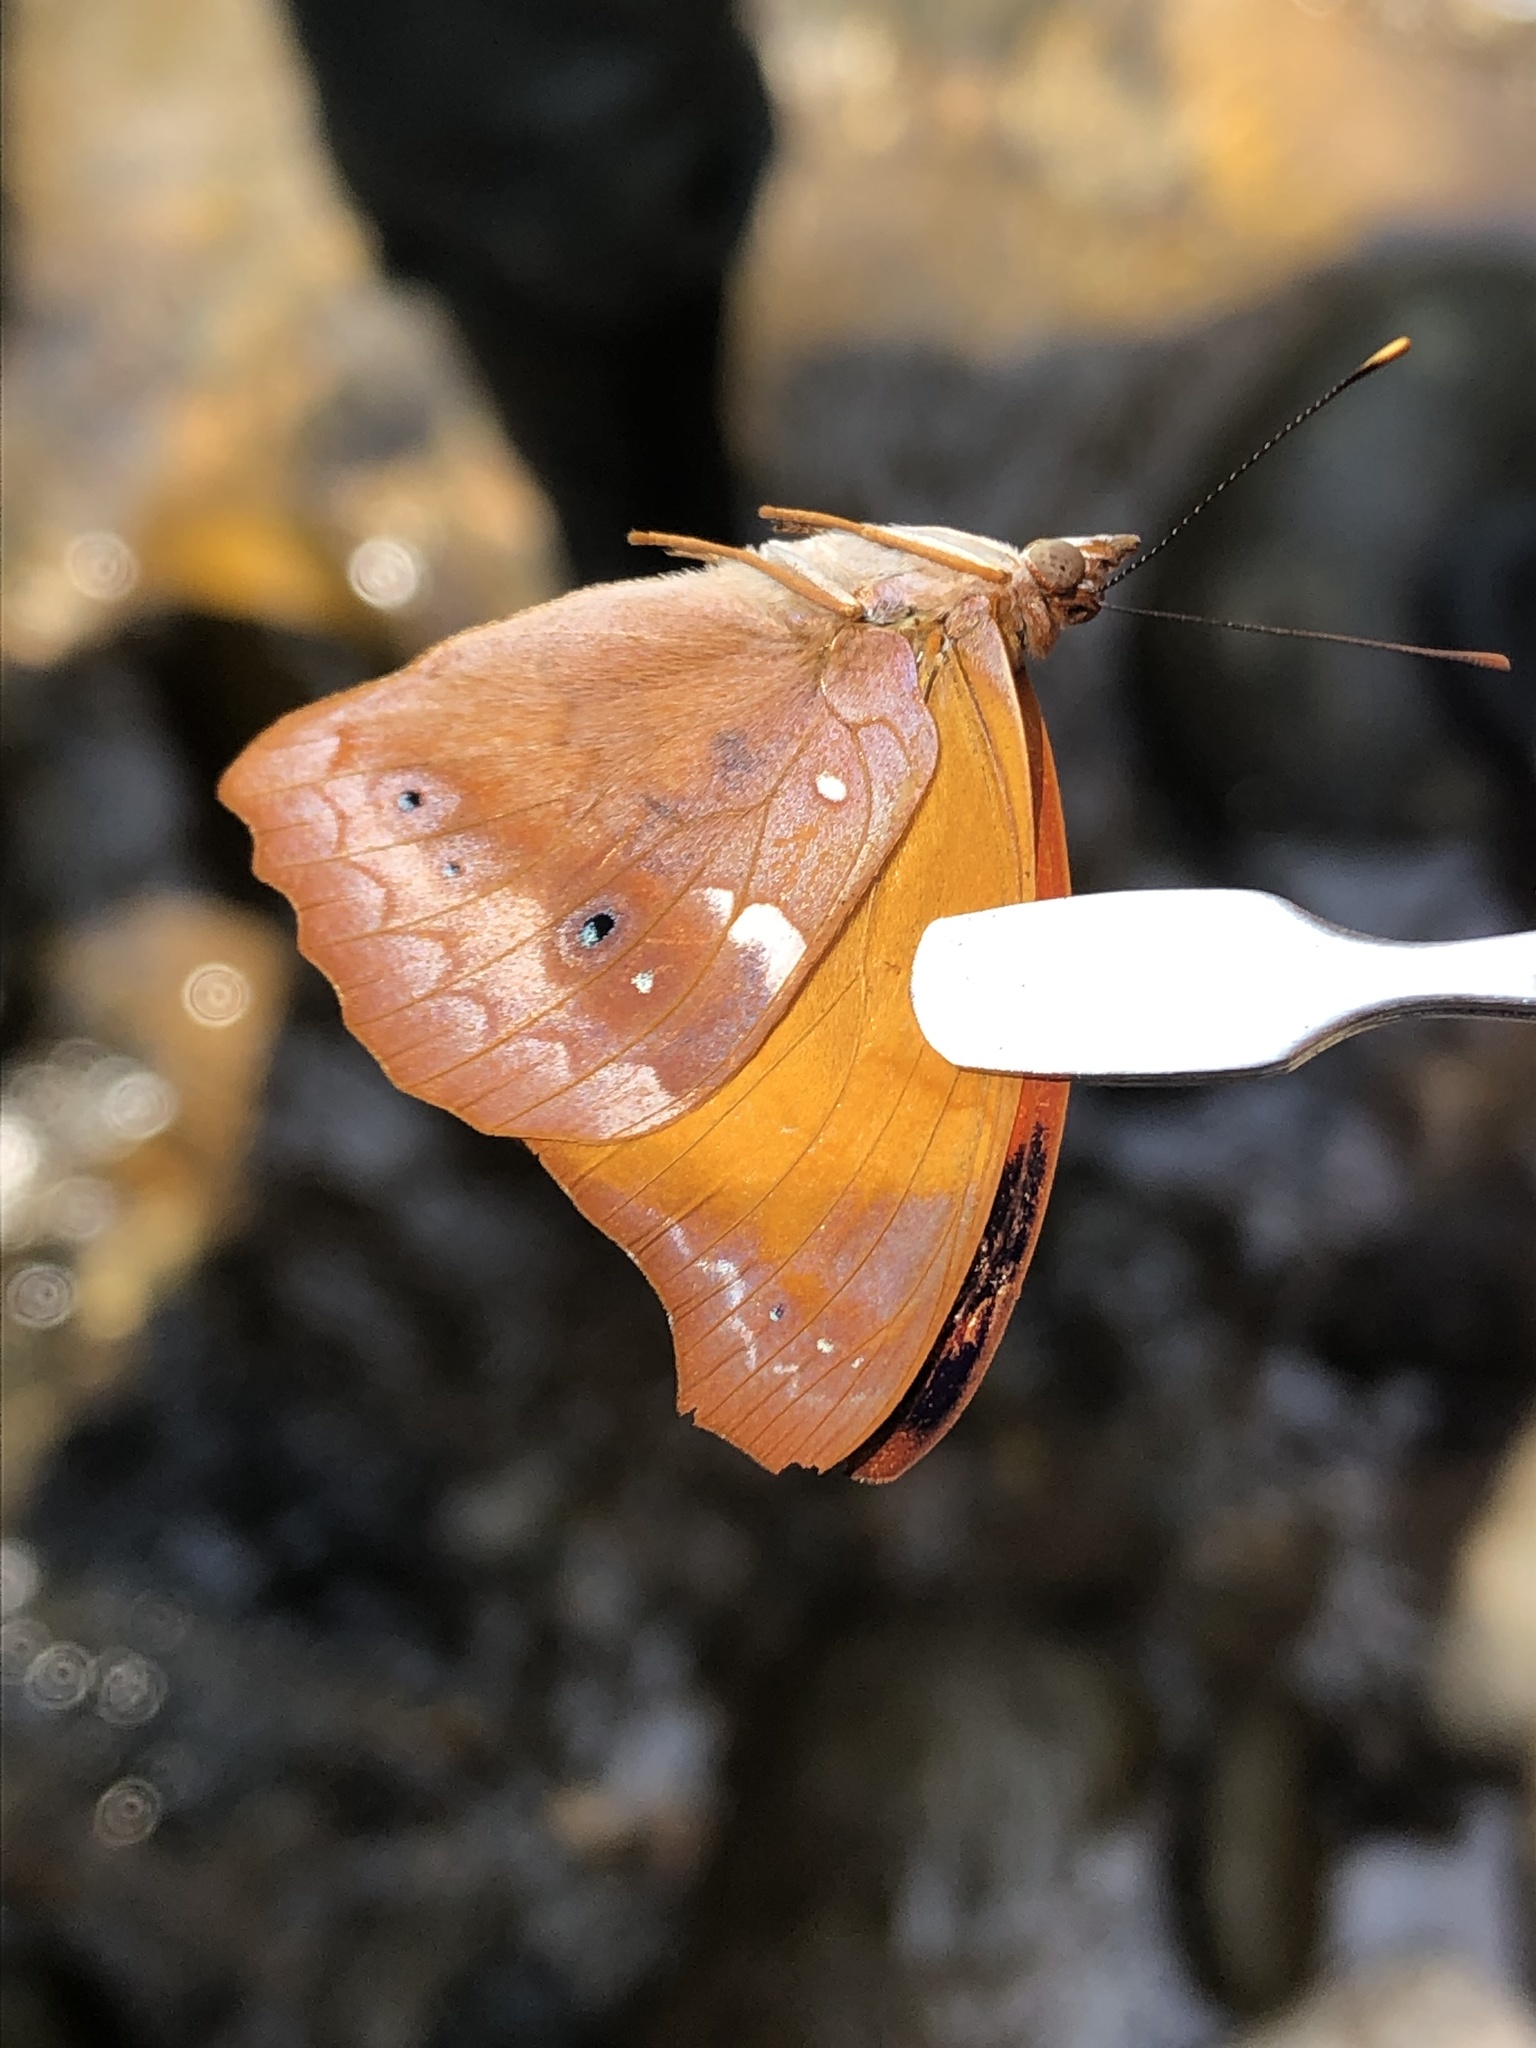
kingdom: Animalia
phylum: Arthropoda
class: Insecta
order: Lepidoptera
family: Nymphalidae
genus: Temenis
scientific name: Temenis laothoe
